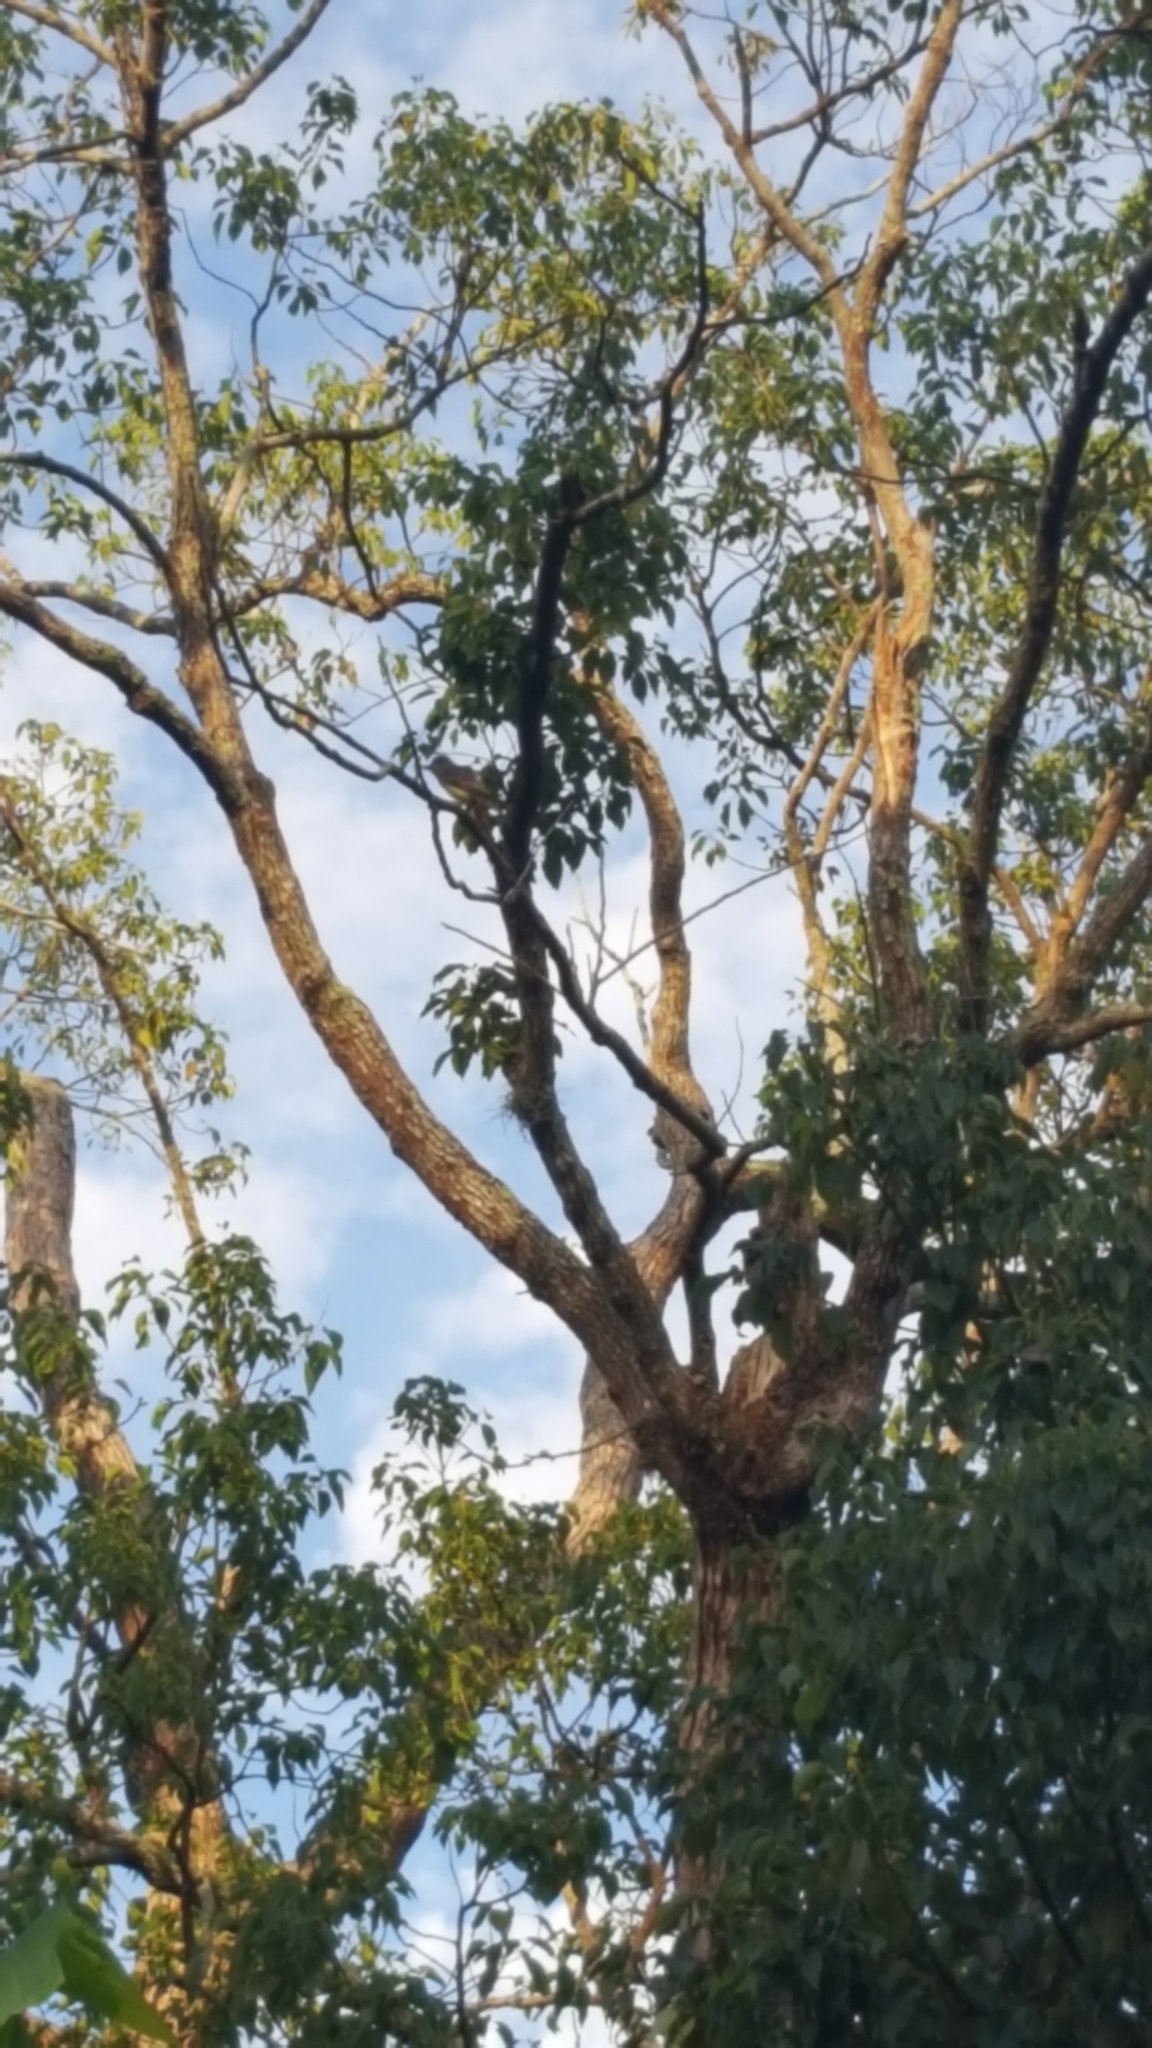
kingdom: Animalia
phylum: Chordata
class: Aves
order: Passeriformes
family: Tyrannidae
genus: Myiarchus
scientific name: Myiarchus crinitus
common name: Great crested flycatcher
